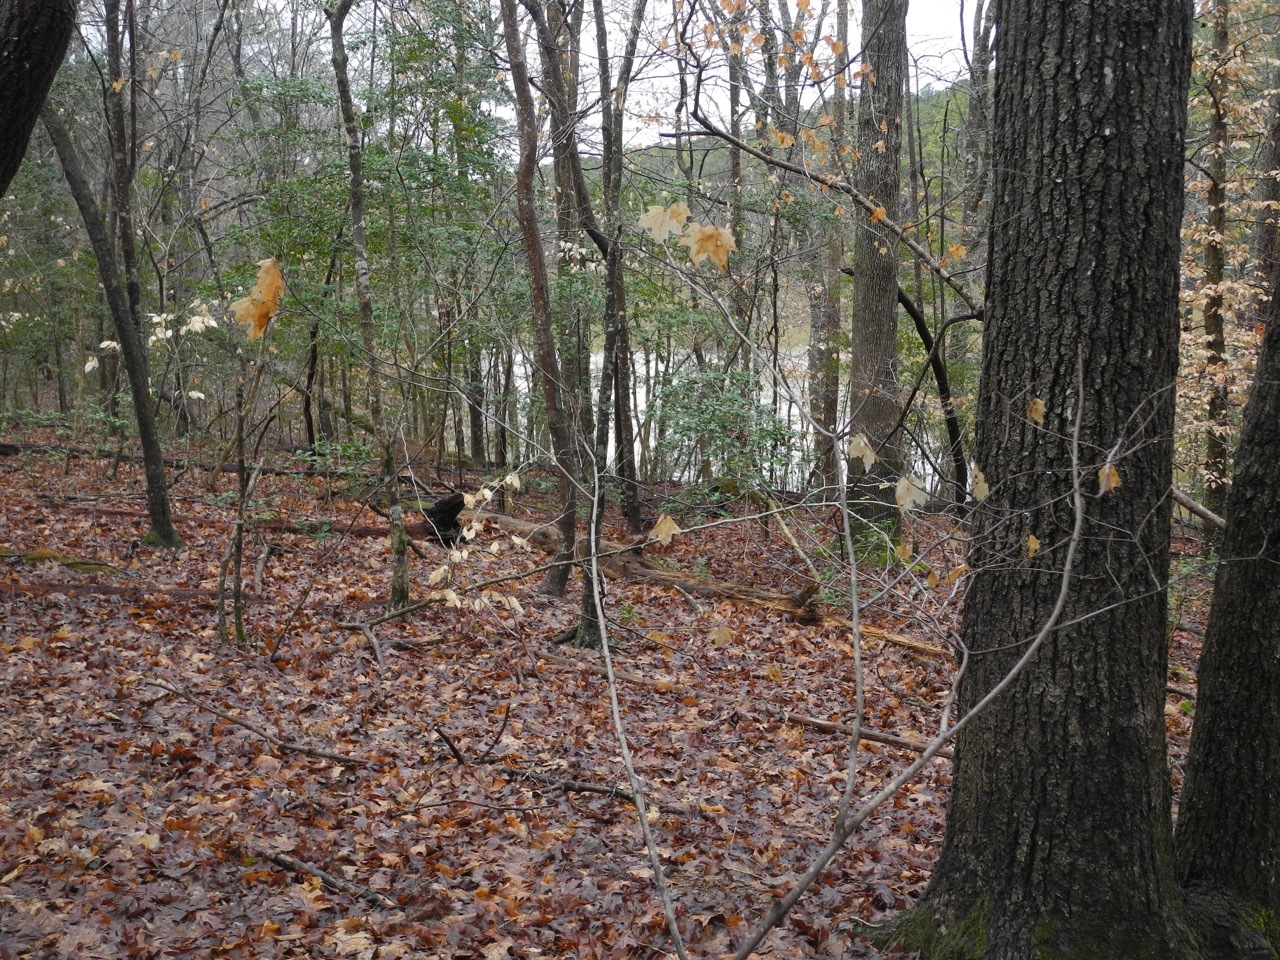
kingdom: Plantae
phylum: Tracheophyta
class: Magnoliopsida
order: Sapindales
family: Sapindaceae
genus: Acer
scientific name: Acer floridanum
